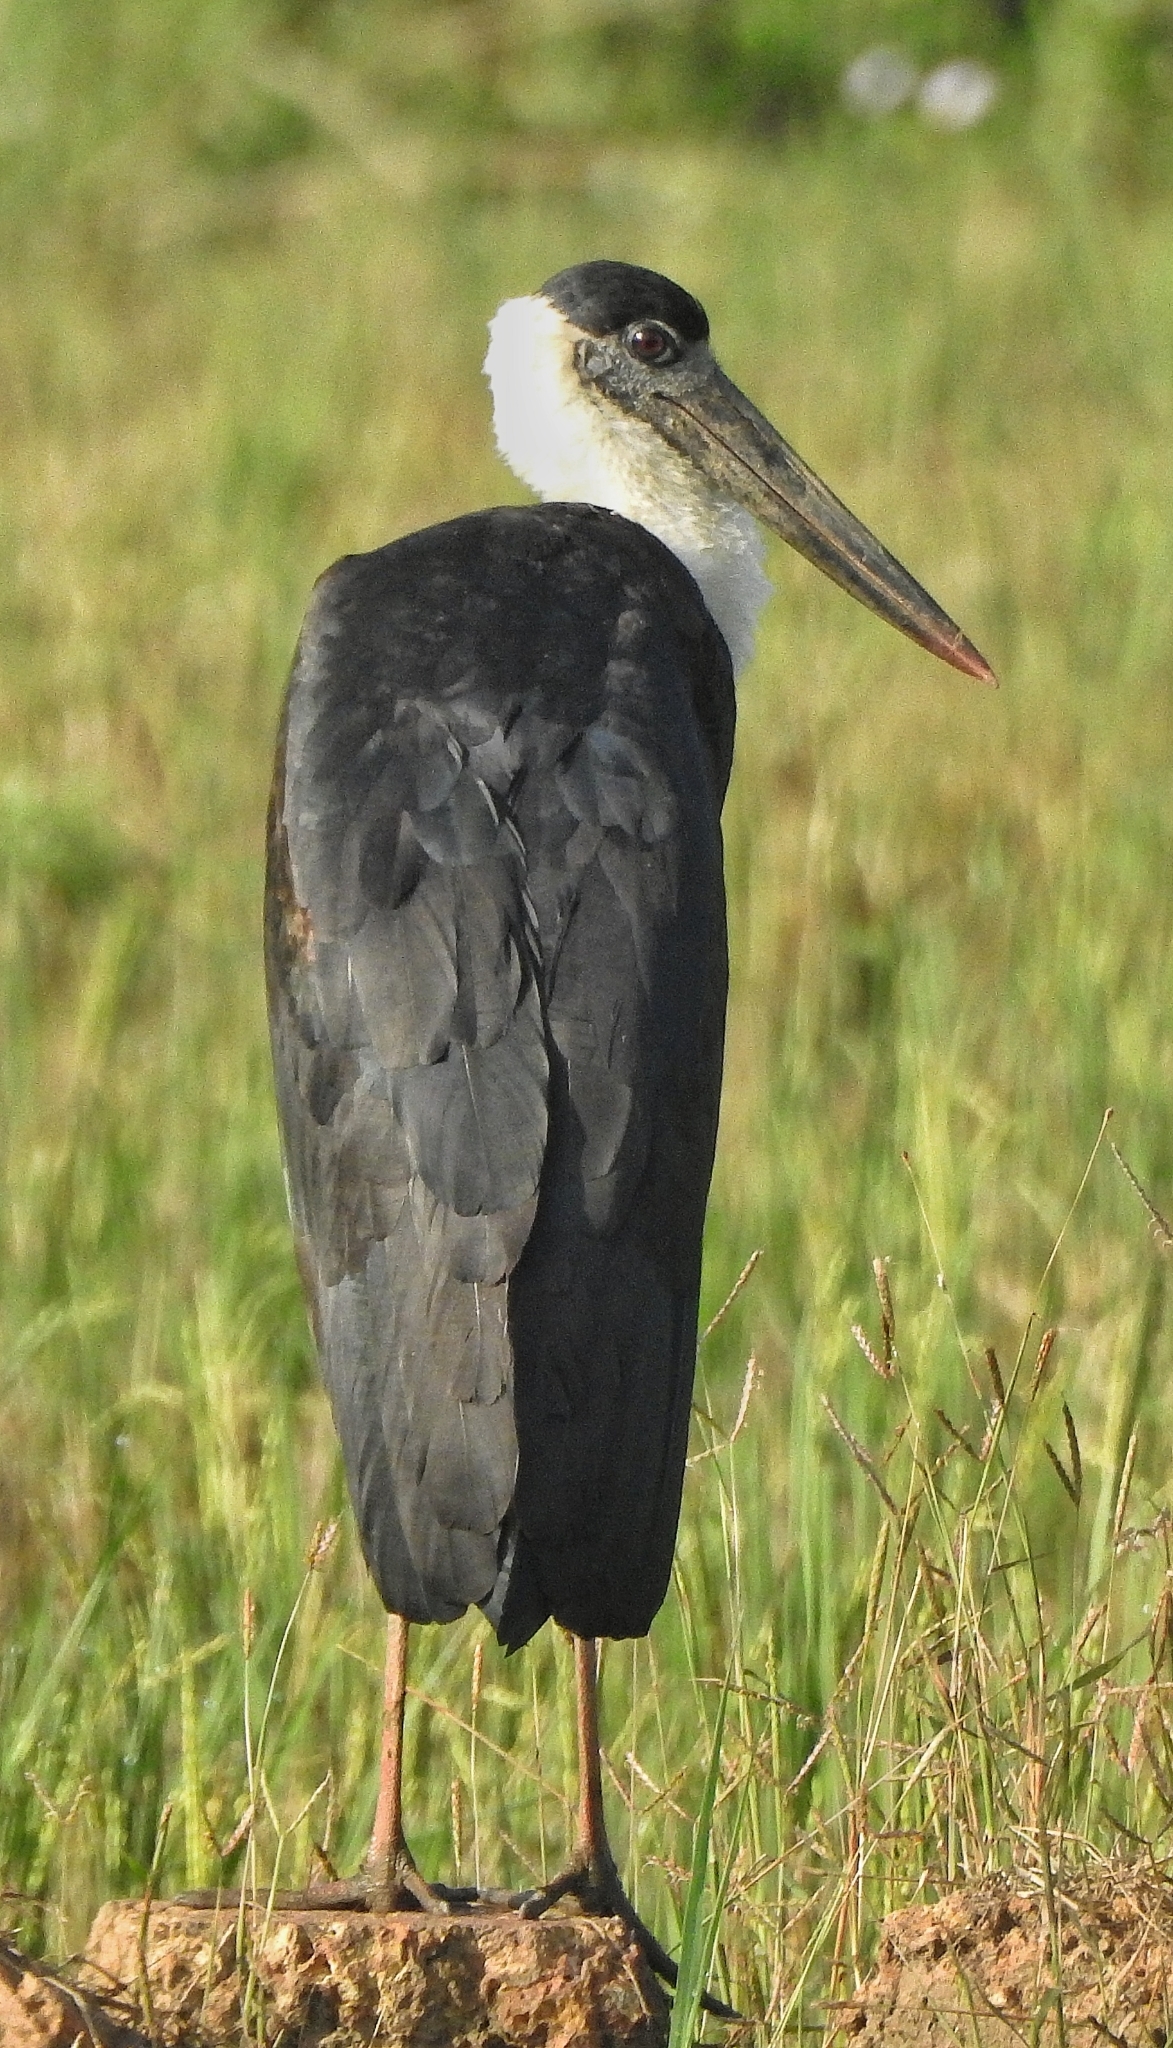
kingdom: Animalia
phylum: Chordata
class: Aves
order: Ciconiiformes
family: Ciconiidae
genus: Ciconia
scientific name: Ciconia episcopus
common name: Woolly-necked stork
